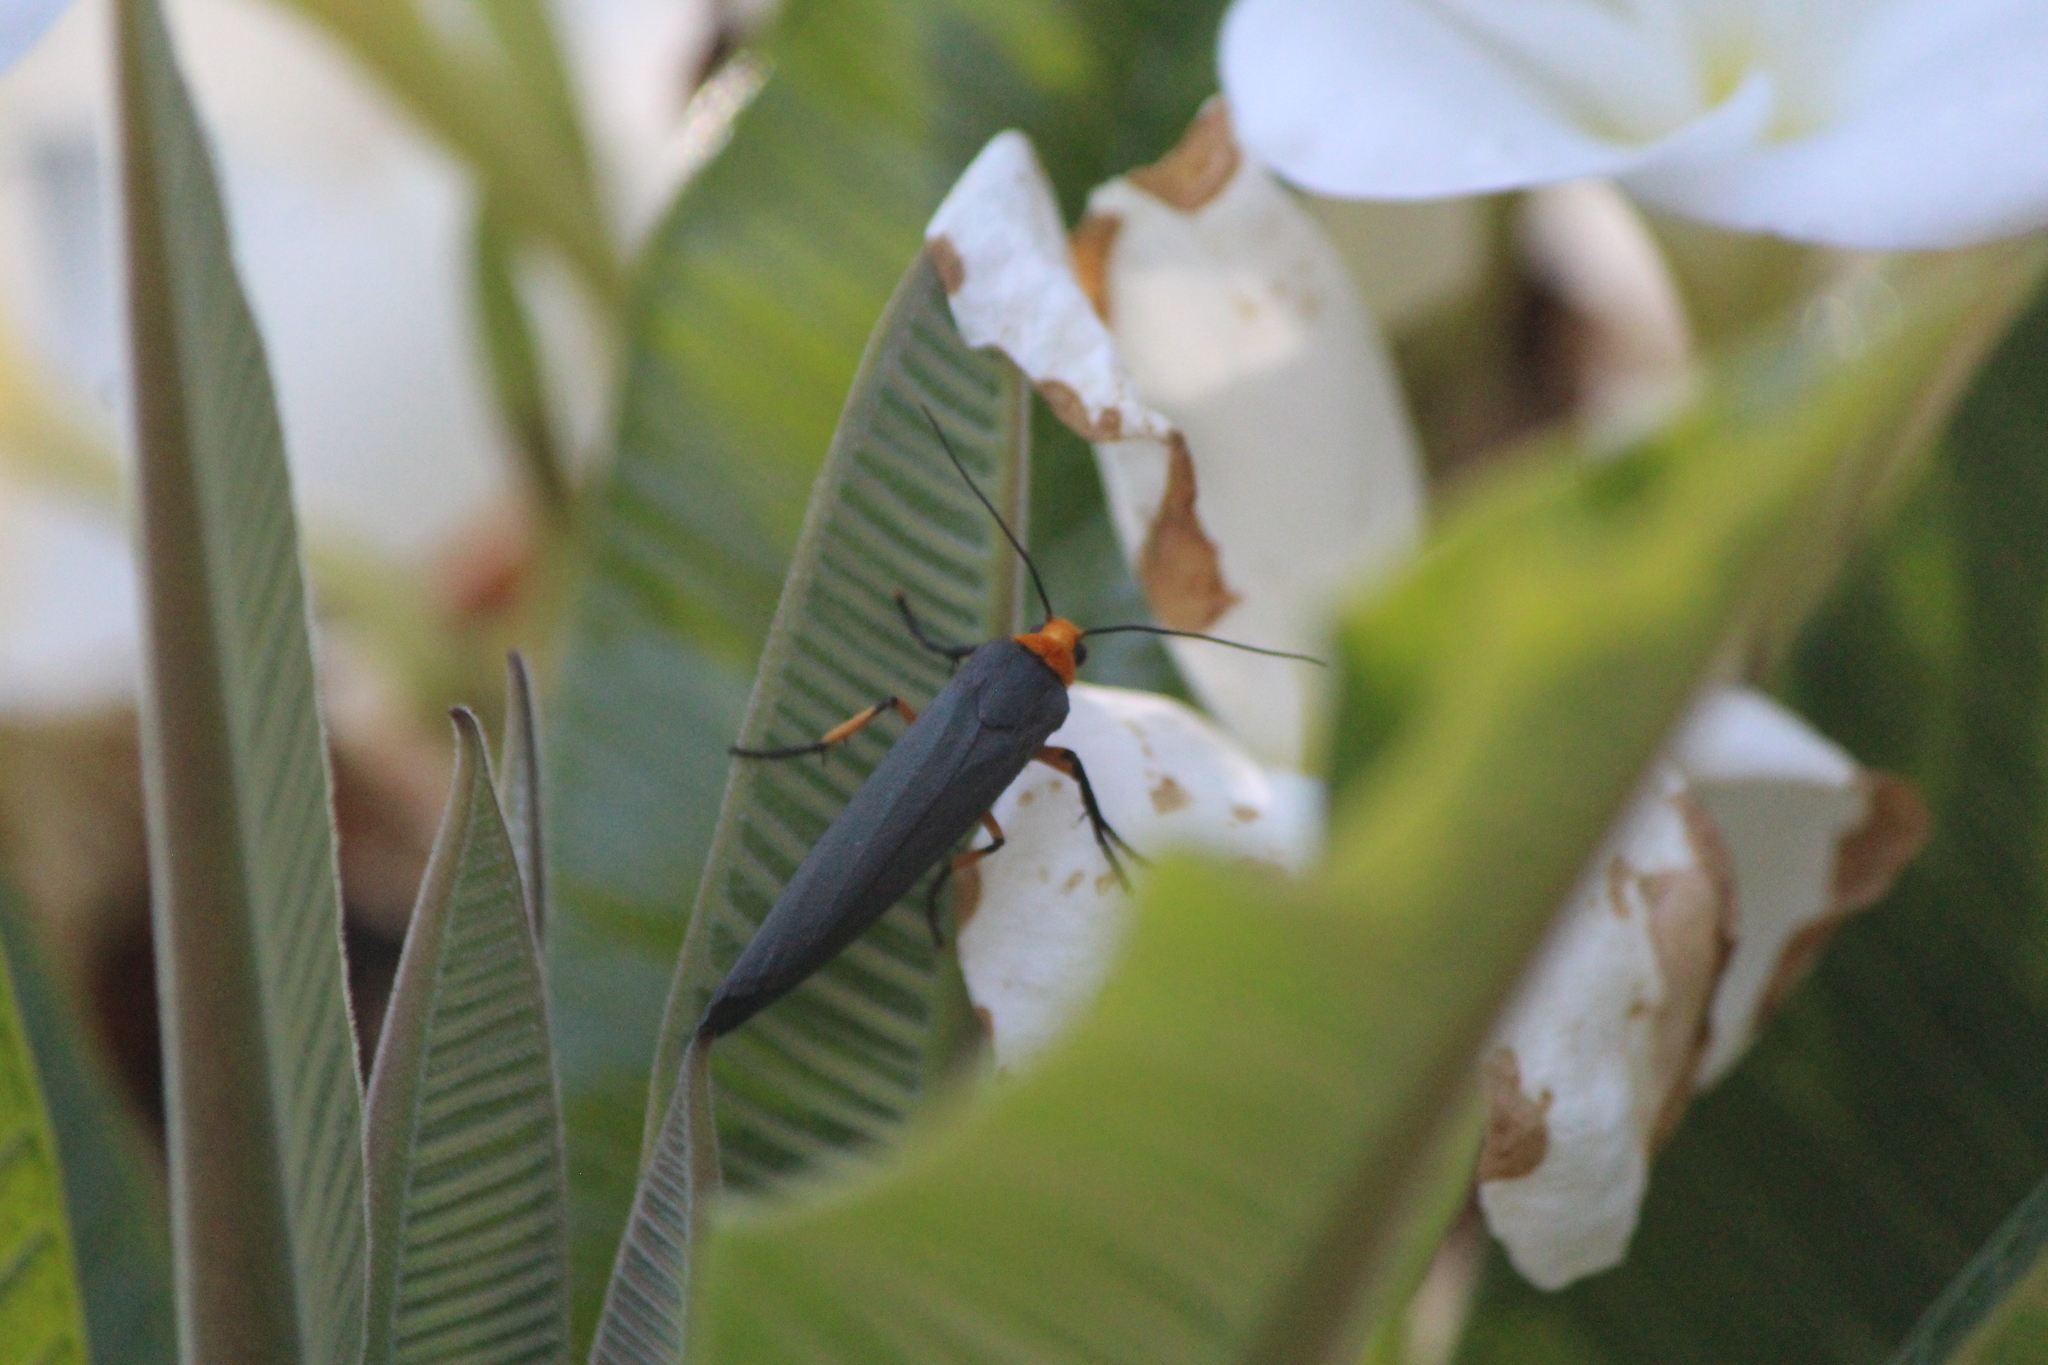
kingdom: Animalia
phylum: Arthropoda
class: Insecta
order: Lepidoptera
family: Erebidae
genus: Gnamptonychia
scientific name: Gnamptonychia ventralis
